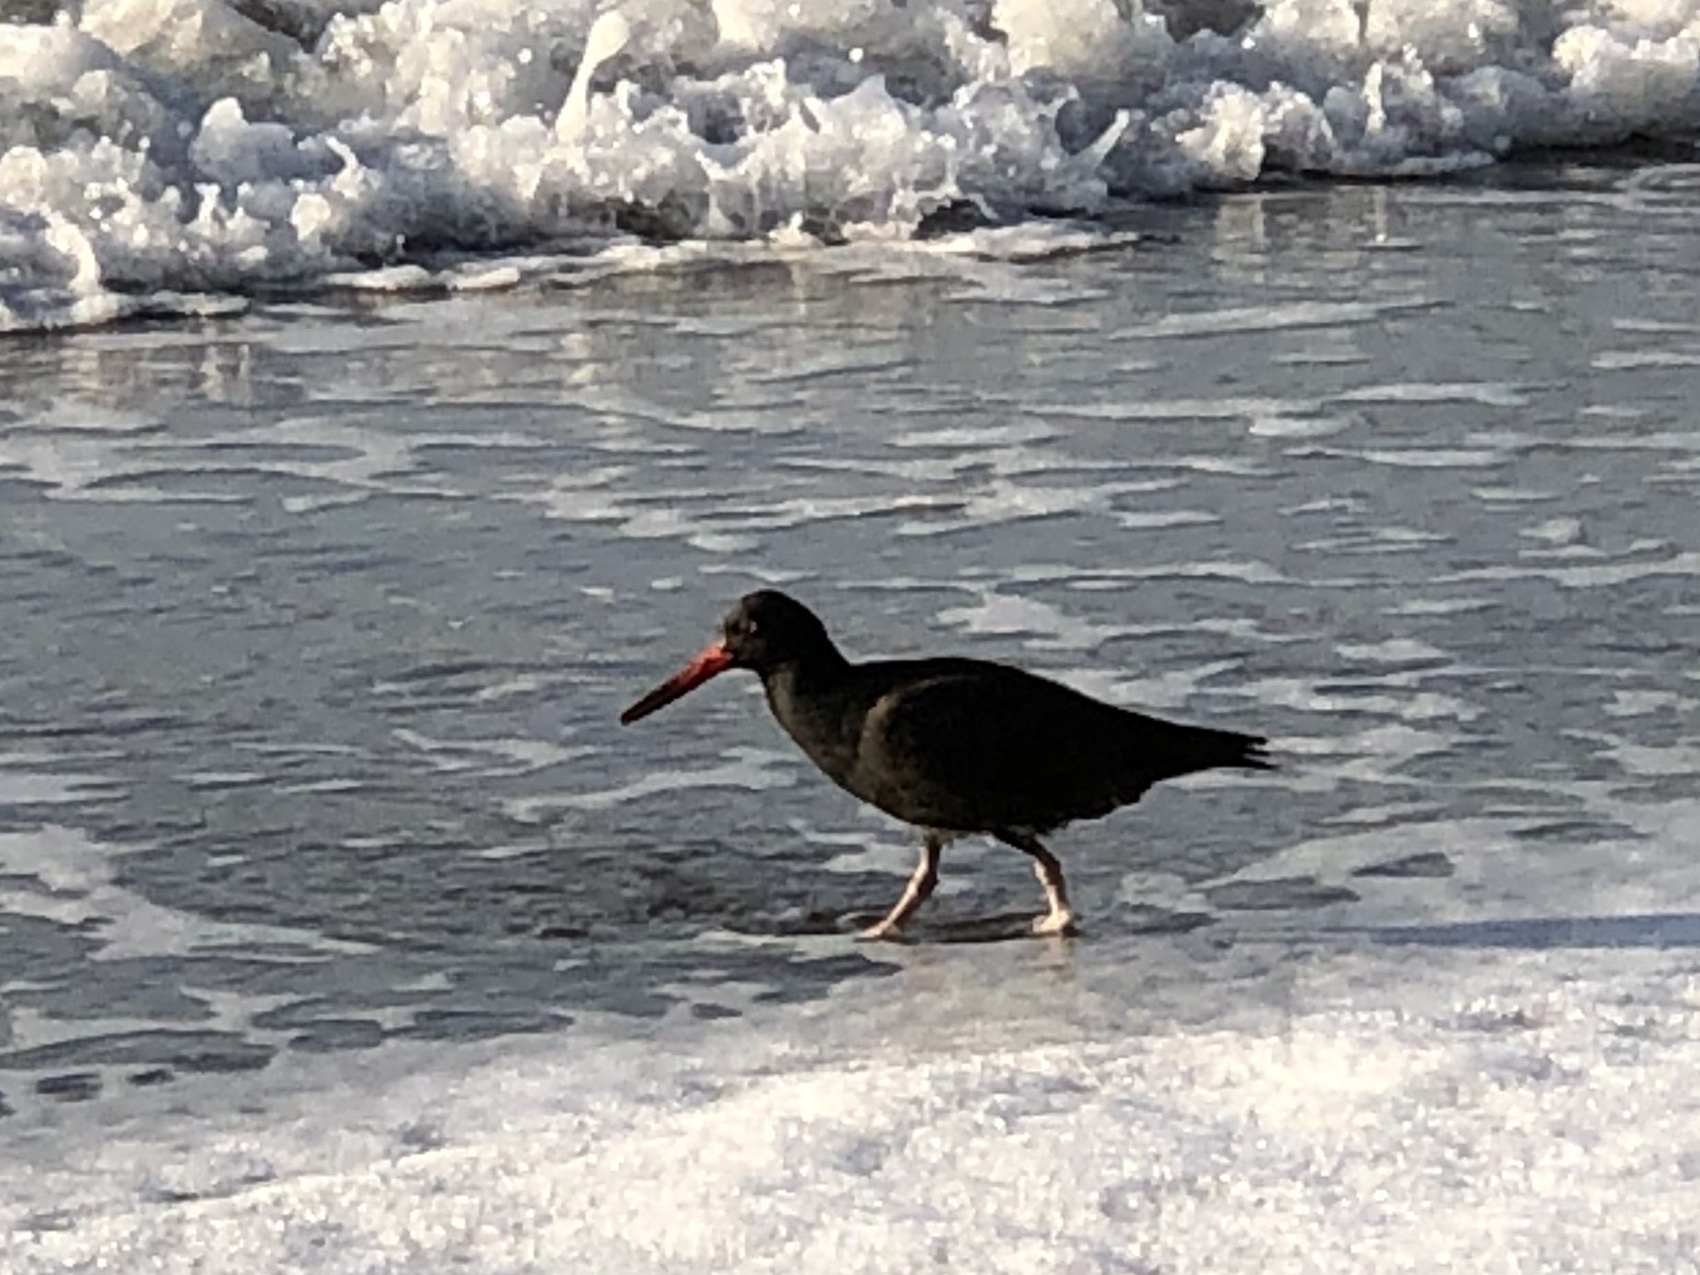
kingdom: Animalia
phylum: Chordata
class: Aves
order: Charadriiformes
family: Haematopodidae
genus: Haematopus
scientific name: Haematopus bachmani
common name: Black oystercatcher
